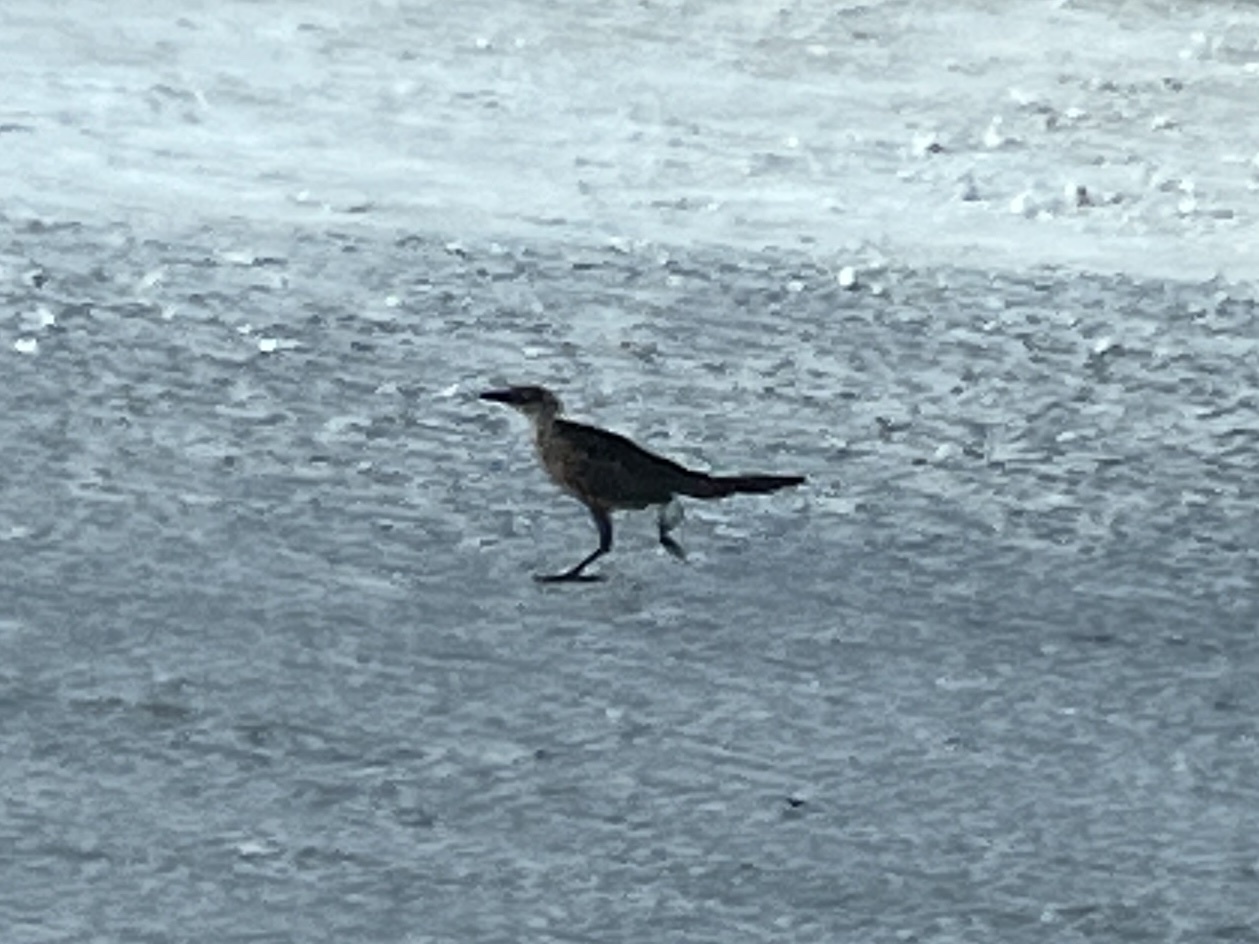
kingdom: Animalia
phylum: Chordata
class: Aves
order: Passeriformes
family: Icteridae
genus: Quiscalus
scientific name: Quiscalus mexicanus
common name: Great-tailed grackle
